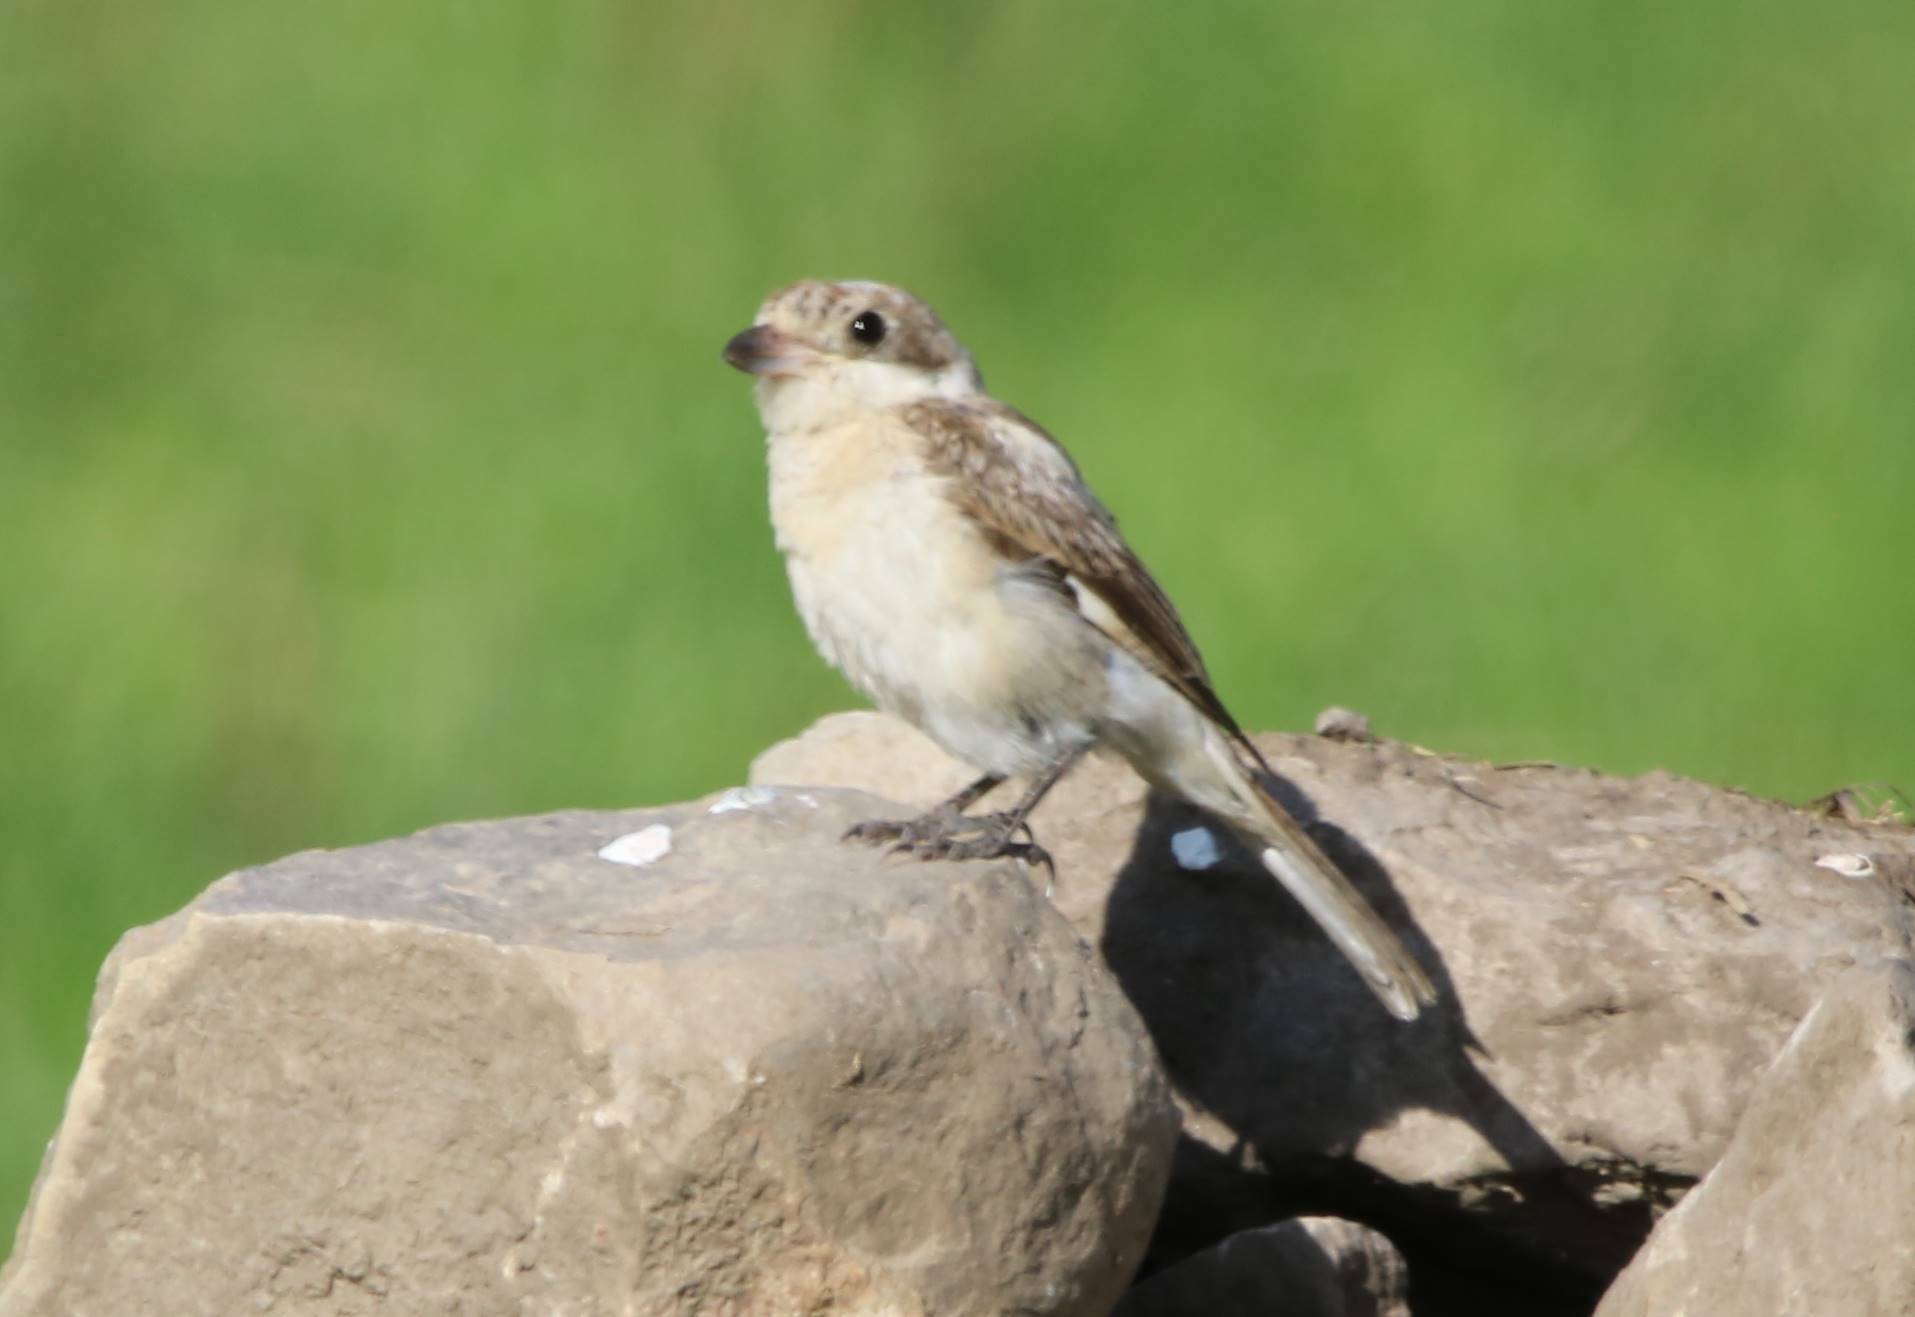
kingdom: Animalia
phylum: Chordata
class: Aves
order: Passeriformes
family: Laniidae
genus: Lanius
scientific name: Lanius senator
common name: Woodchat shrike
